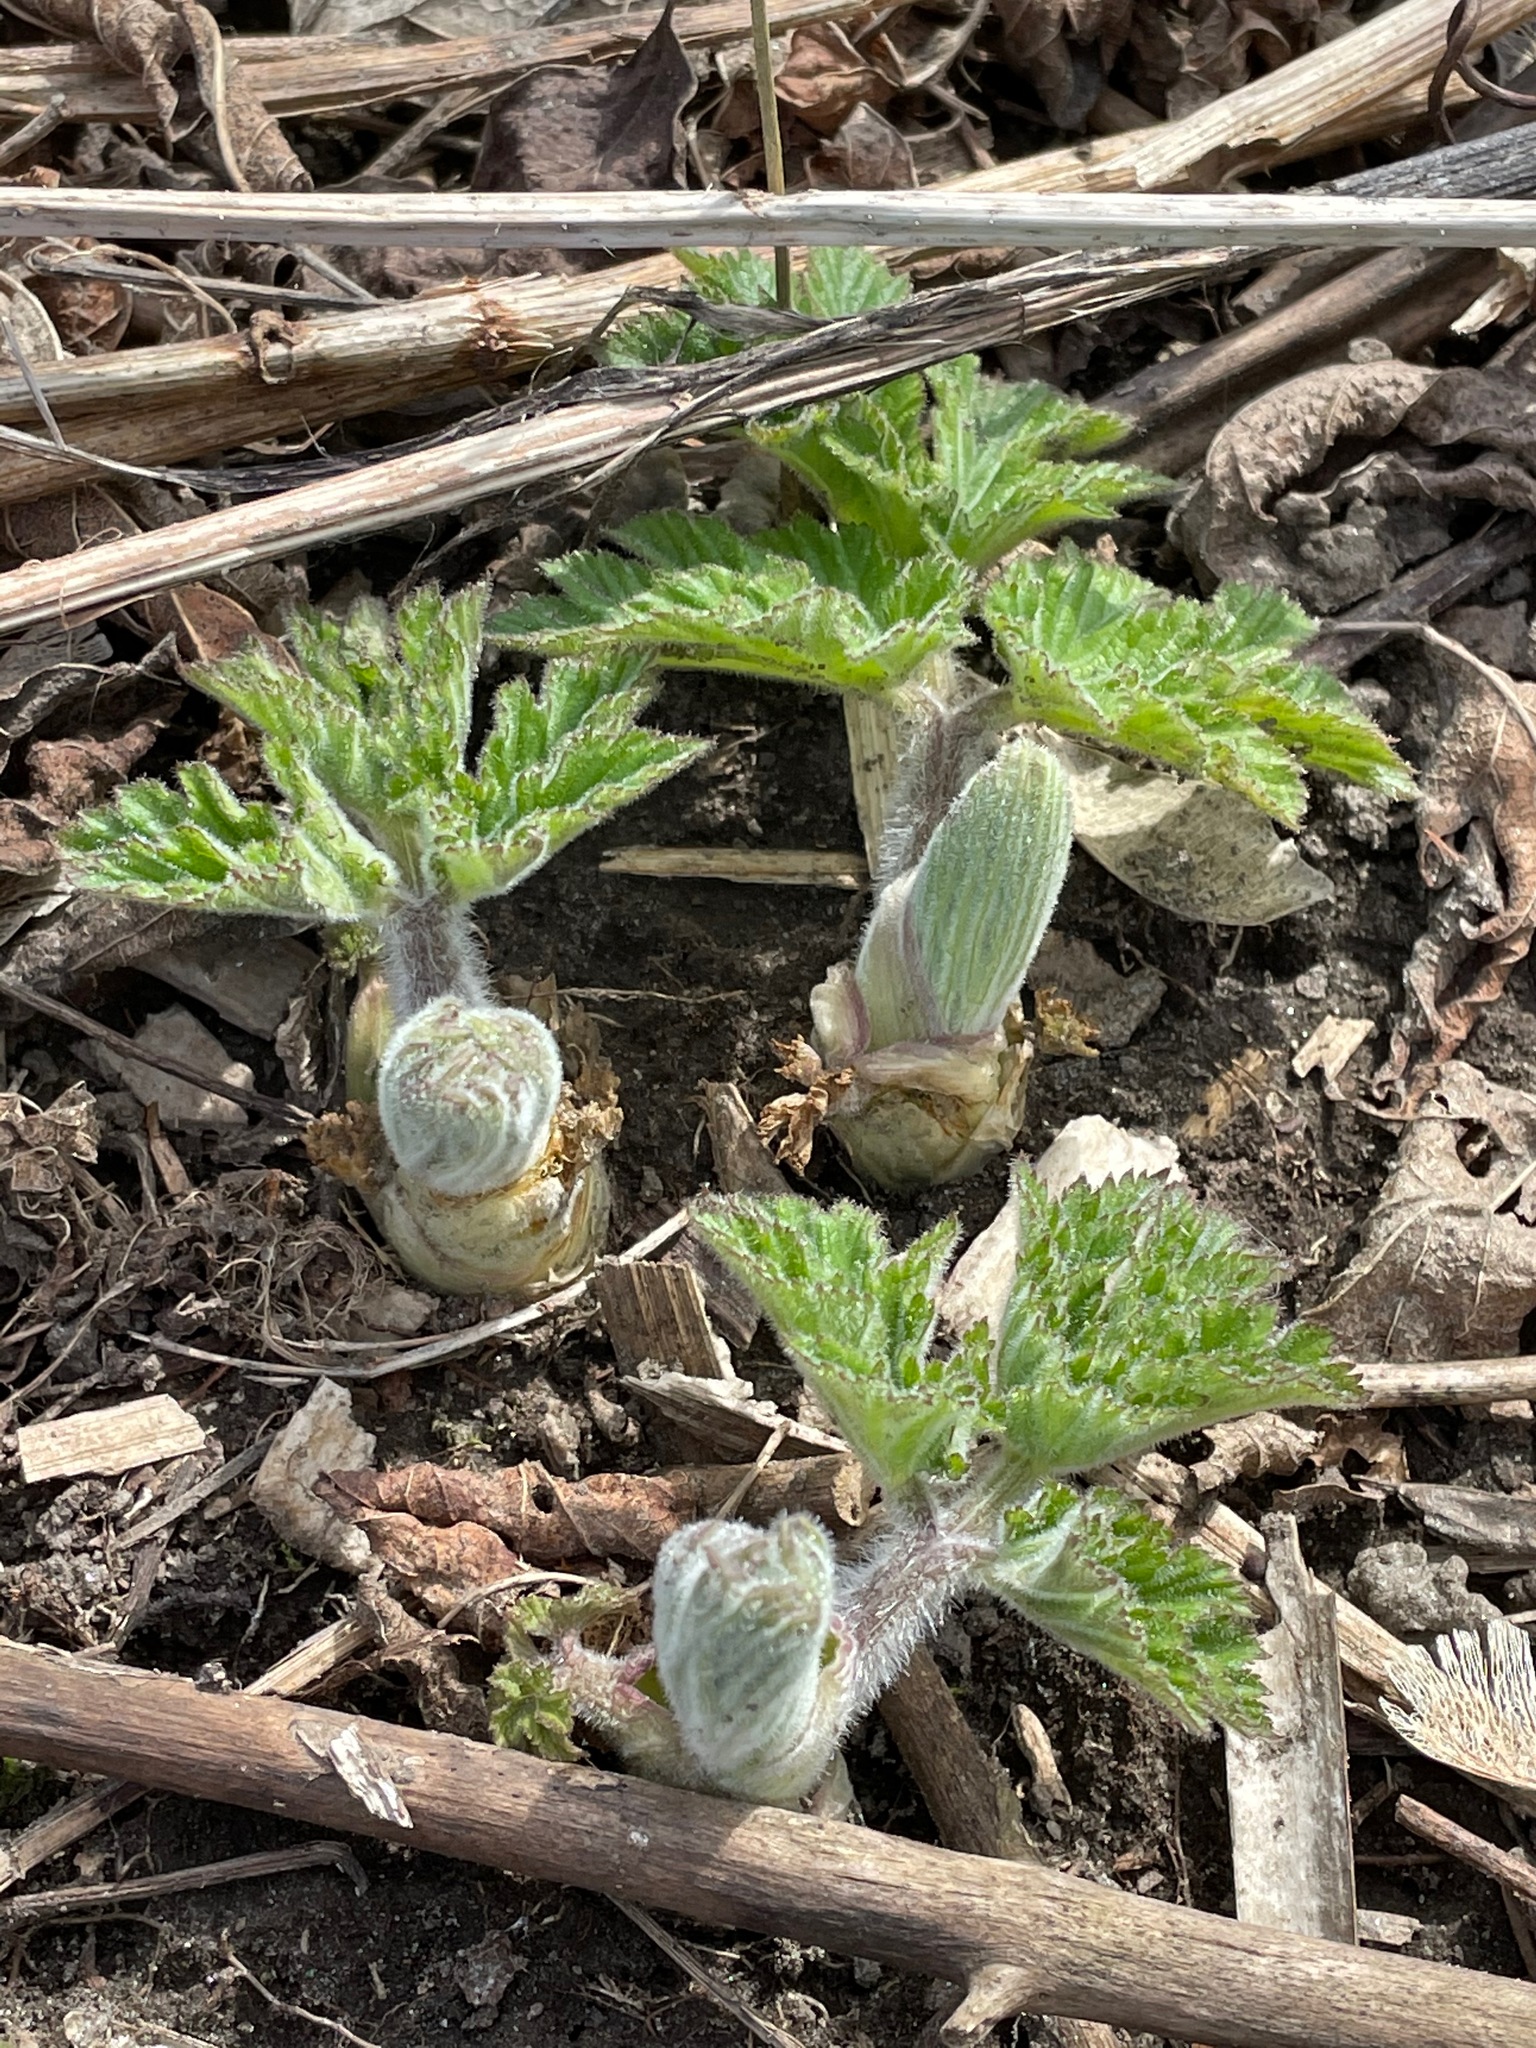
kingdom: Plantae
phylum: Tracheophyta
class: Magnoliopsida
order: Apiales
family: Apiaceae
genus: Heracleum
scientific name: Heracleum maximum
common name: American cow parsnip
